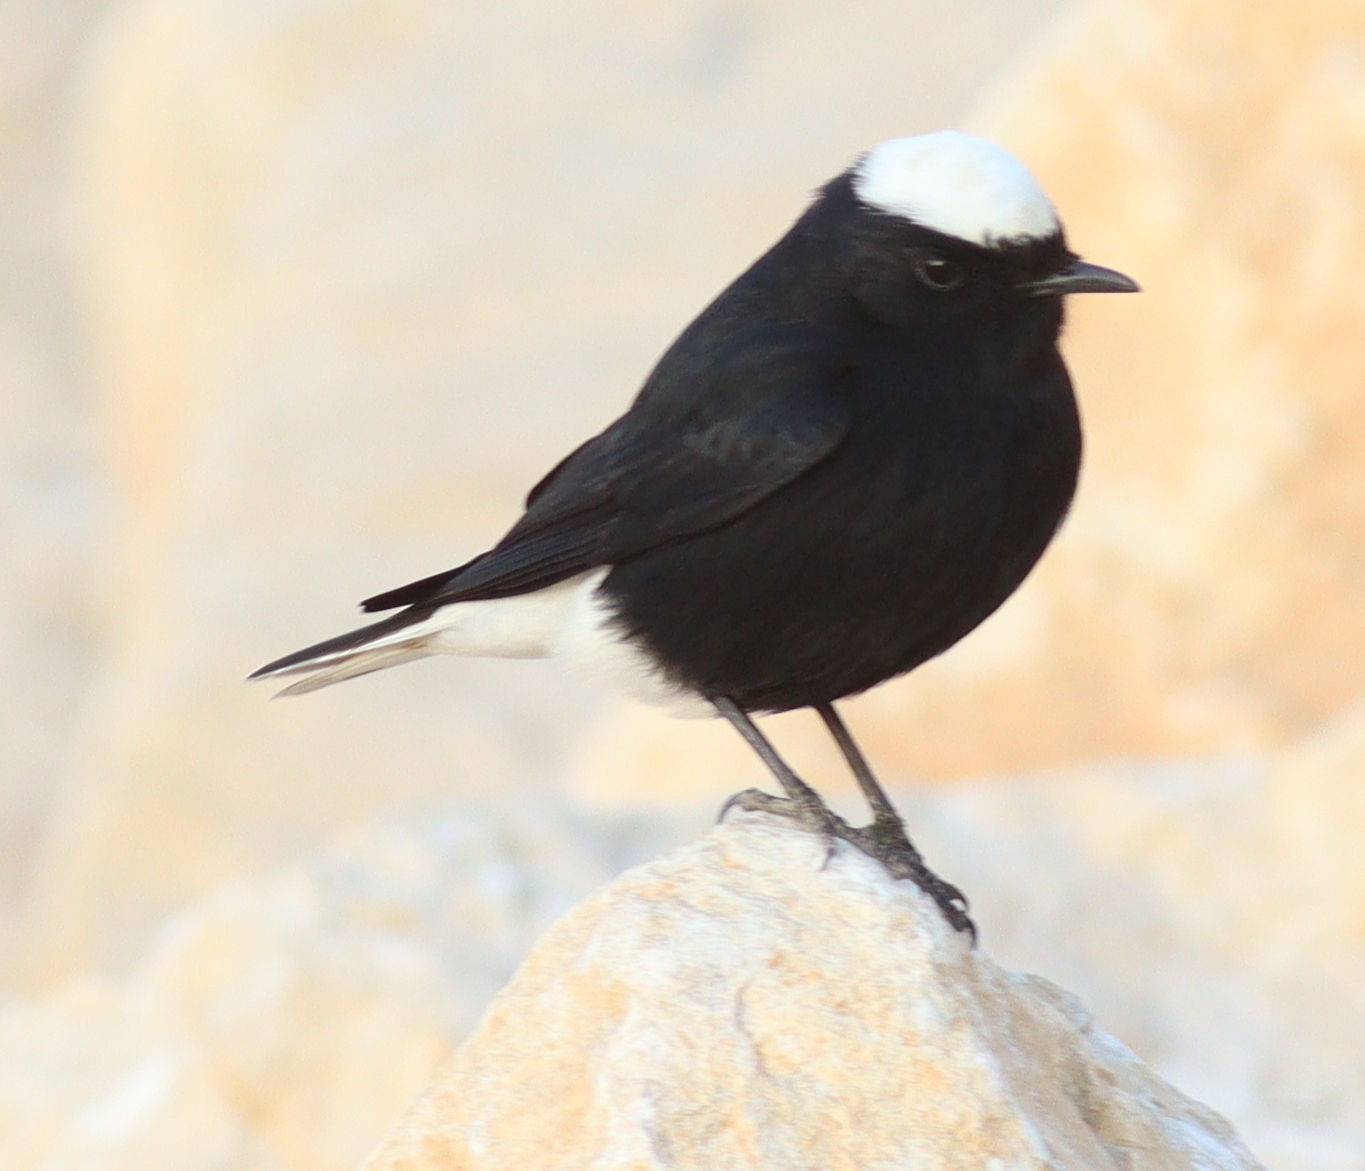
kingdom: Animalia
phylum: Chordata
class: Aves
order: Passeriformes
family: Muscicapidae
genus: Oenanthe
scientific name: Oenanthe leucopyga
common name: White-crowned wheatear
